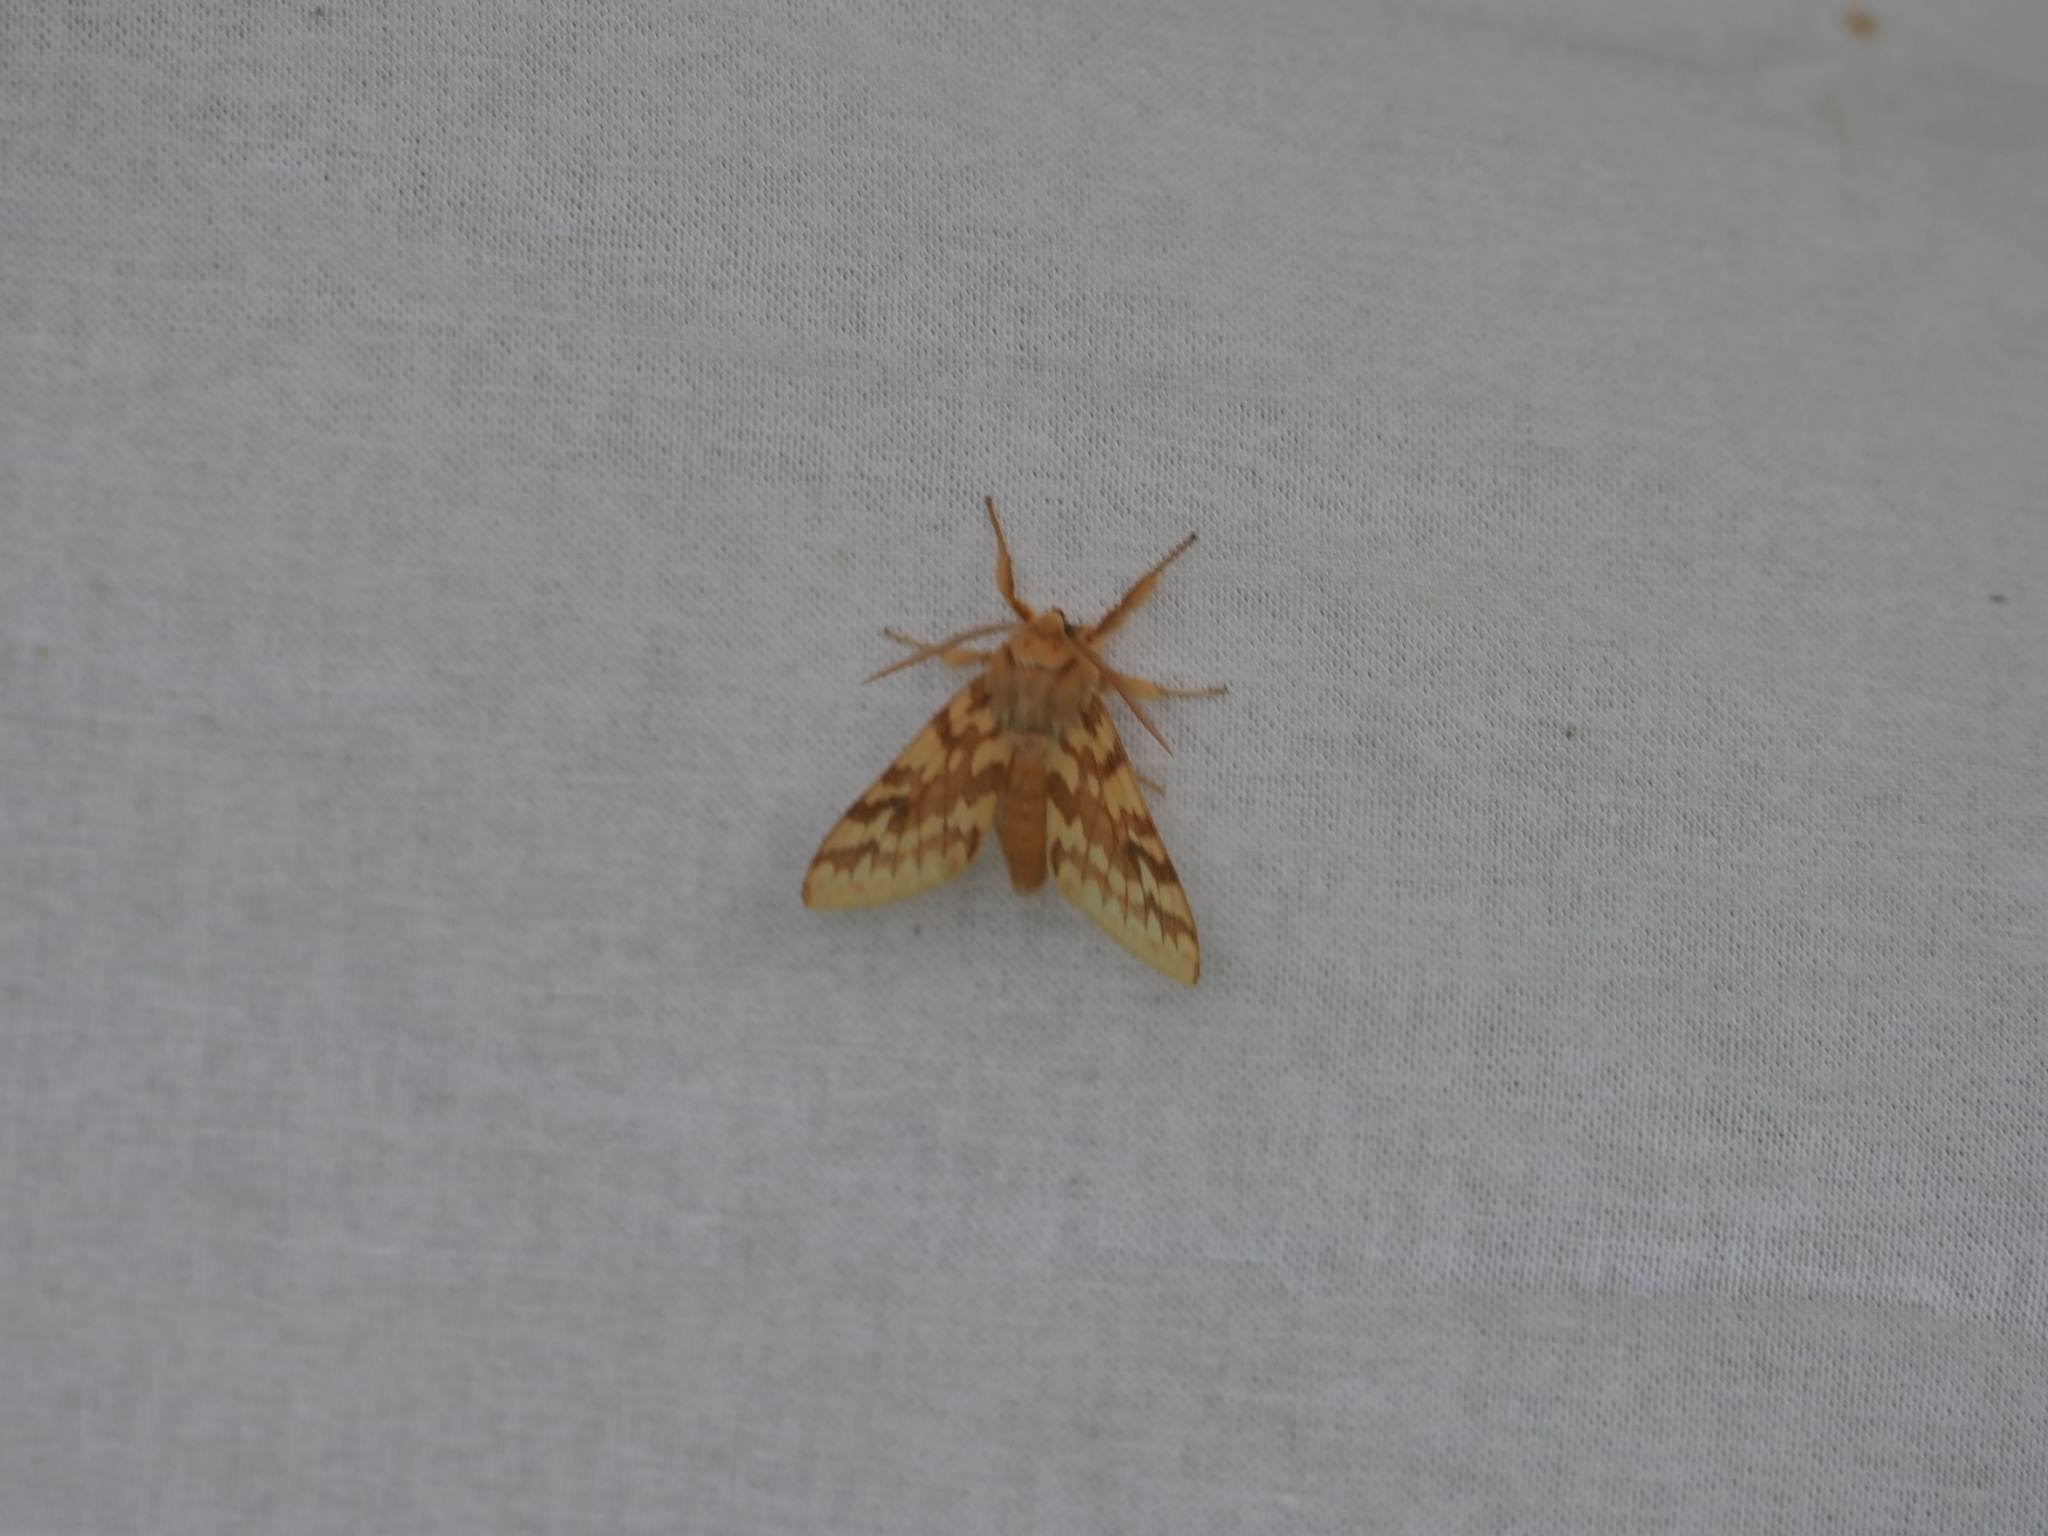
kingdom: Animalia
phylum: Arthropoda
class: Insecta
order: Lepidoptera
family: Erebidae
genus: Lophocampa
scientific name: Lophocampa maculata
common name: Spotted tussock moth
